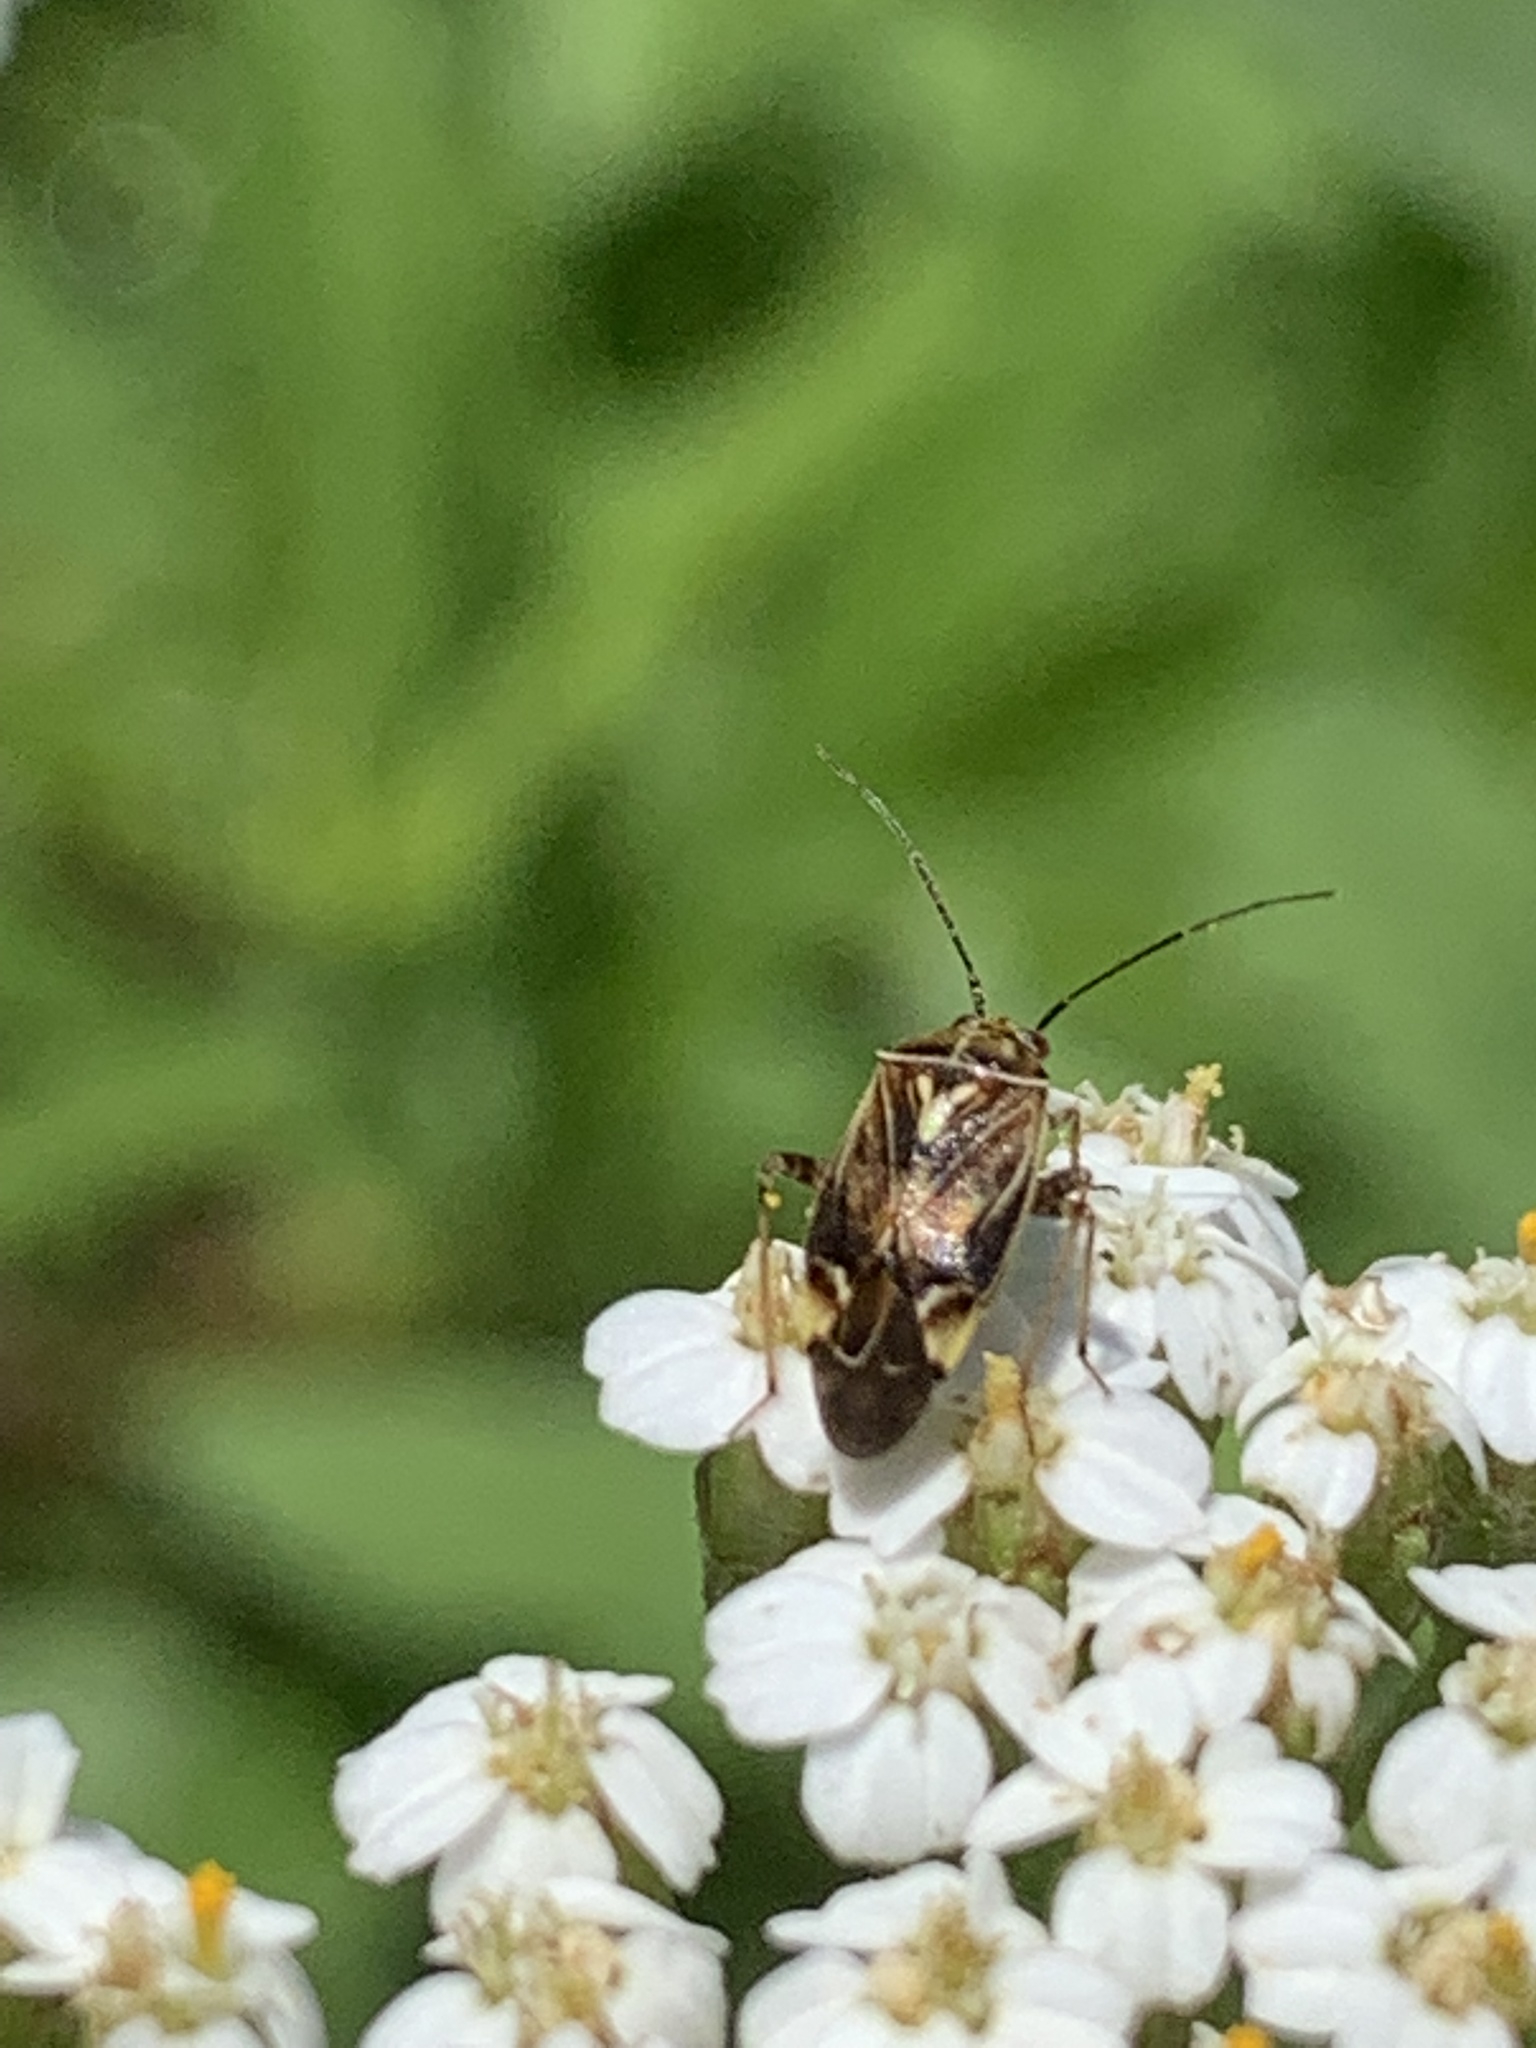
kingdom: Animalia
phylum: Arthropoda
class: Insecta
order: Hemiptera
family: Miridae
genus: Lygus
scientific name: Lygus lineolaris
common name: North american tarnished plant bug
